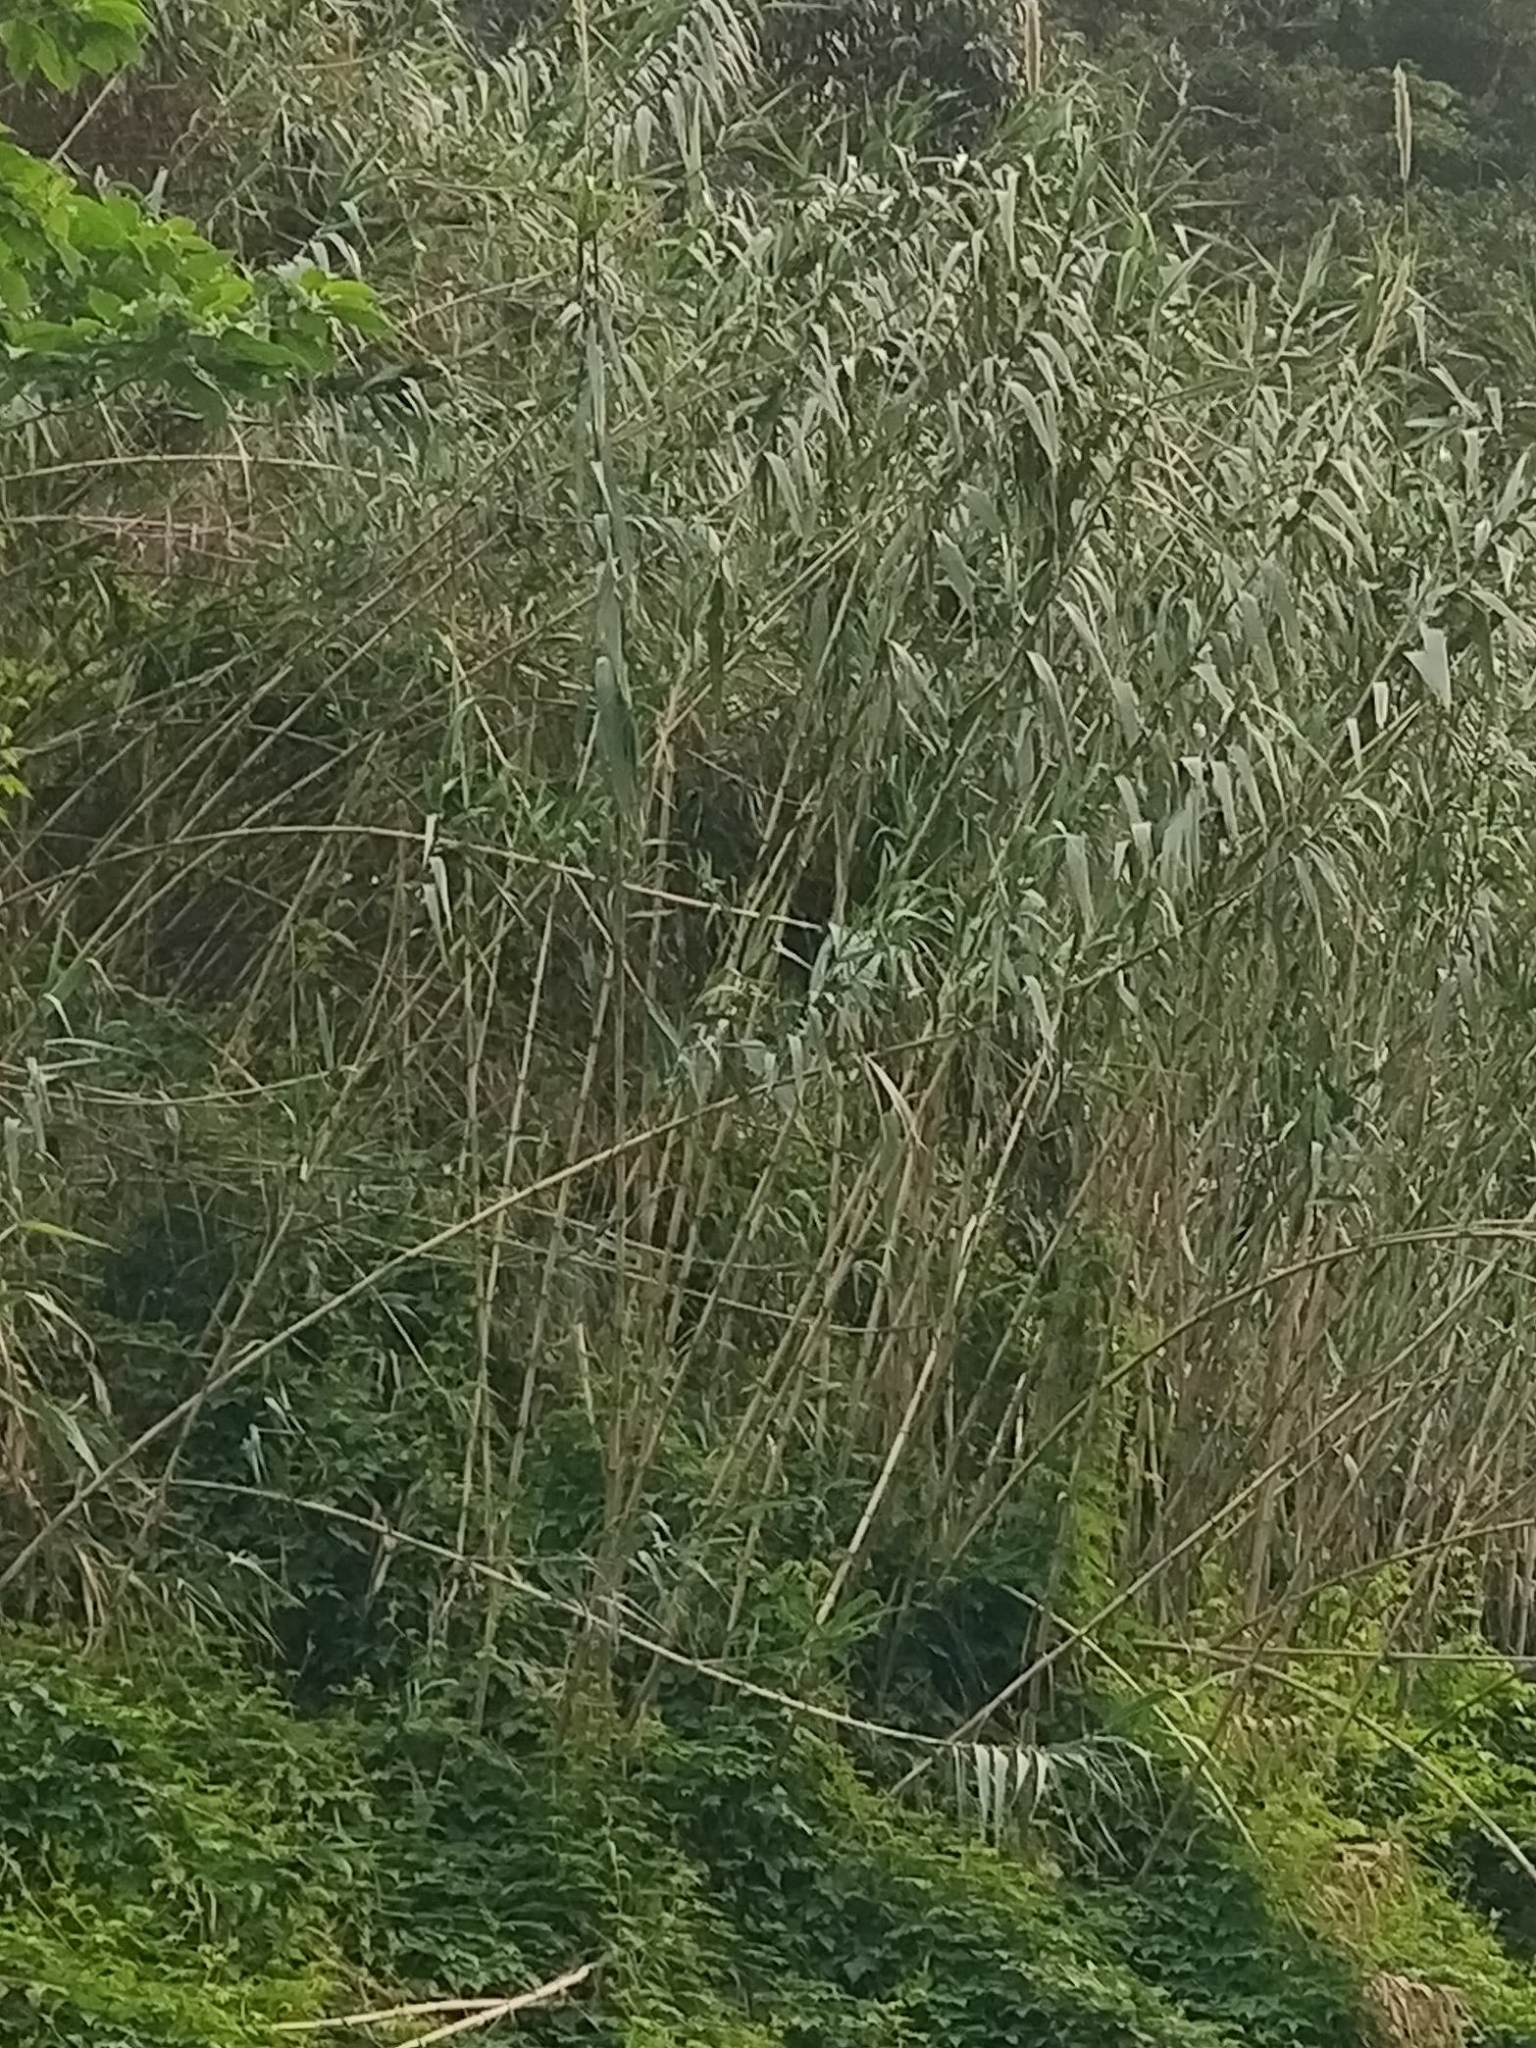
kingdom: Plantae
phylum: Tracheophyta
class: Liliopsida
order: Poales
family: Poaceae
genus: Arundo
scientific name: Arundo donax
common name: Giant reed
